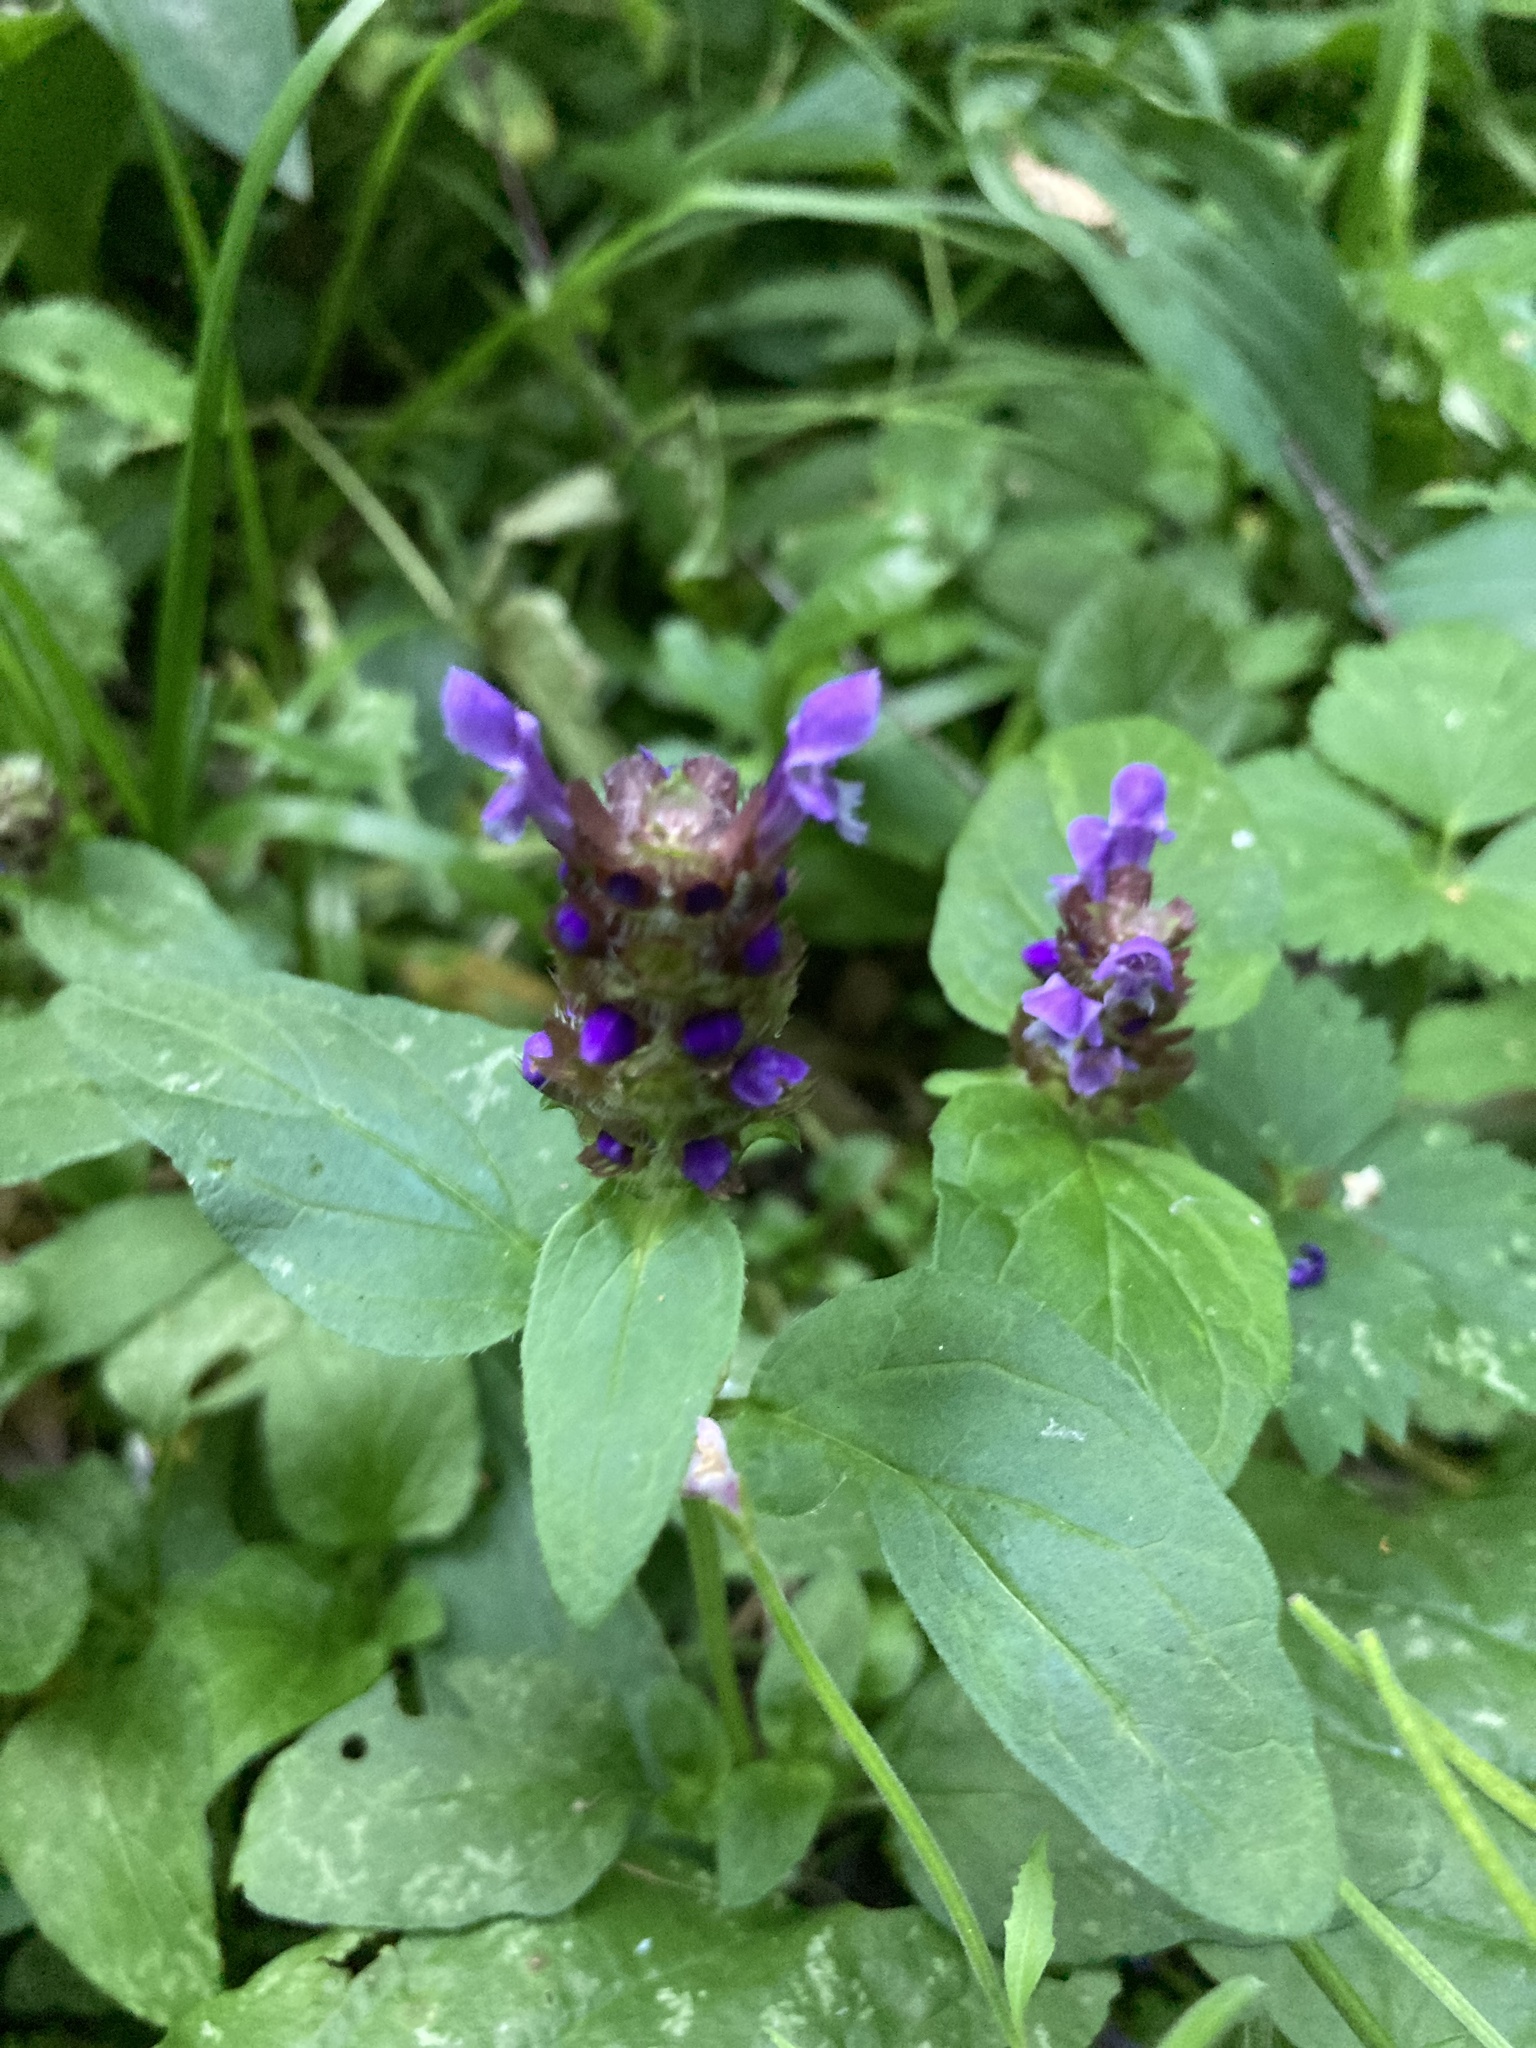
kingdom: Plantae
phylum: Tracheophyta
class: Magnoliopsida
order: Lamiales
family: Lamiaceae
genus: Prunella
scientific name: Prunella vulgaris
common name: Heal-all
